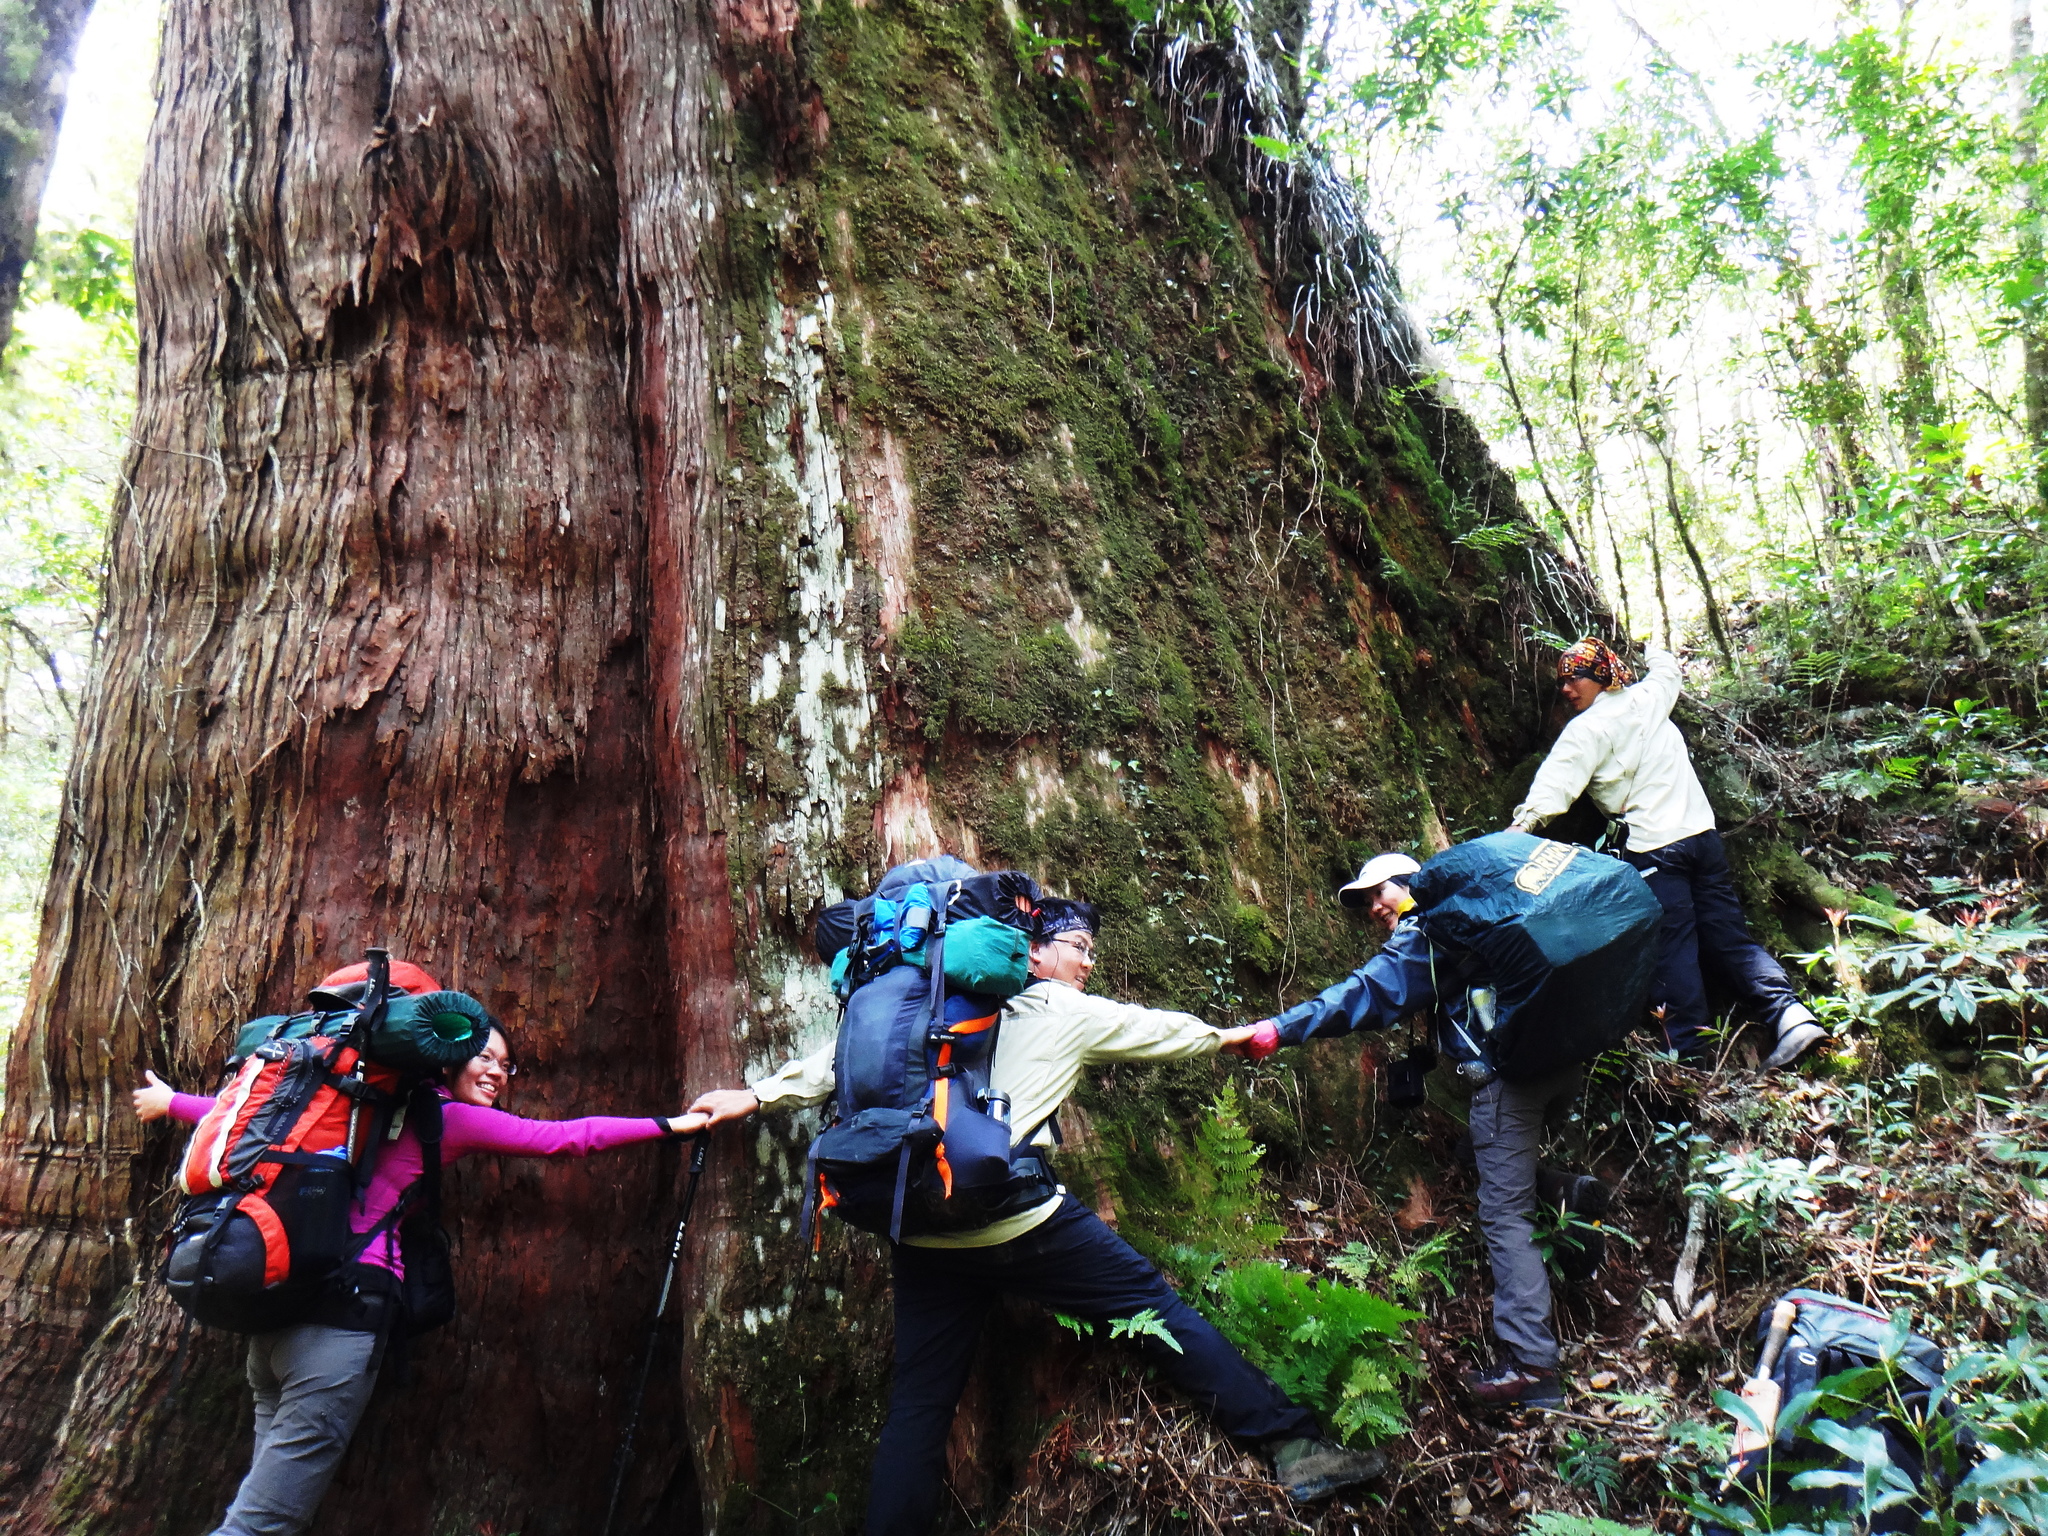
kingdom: Plantae
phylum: Tracheophyta
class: Pinopsida
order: Pinales
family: Cupressaceae
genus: Chamaecyparis
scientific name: Chamaecyparis formosensis
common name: Formosan cypress
